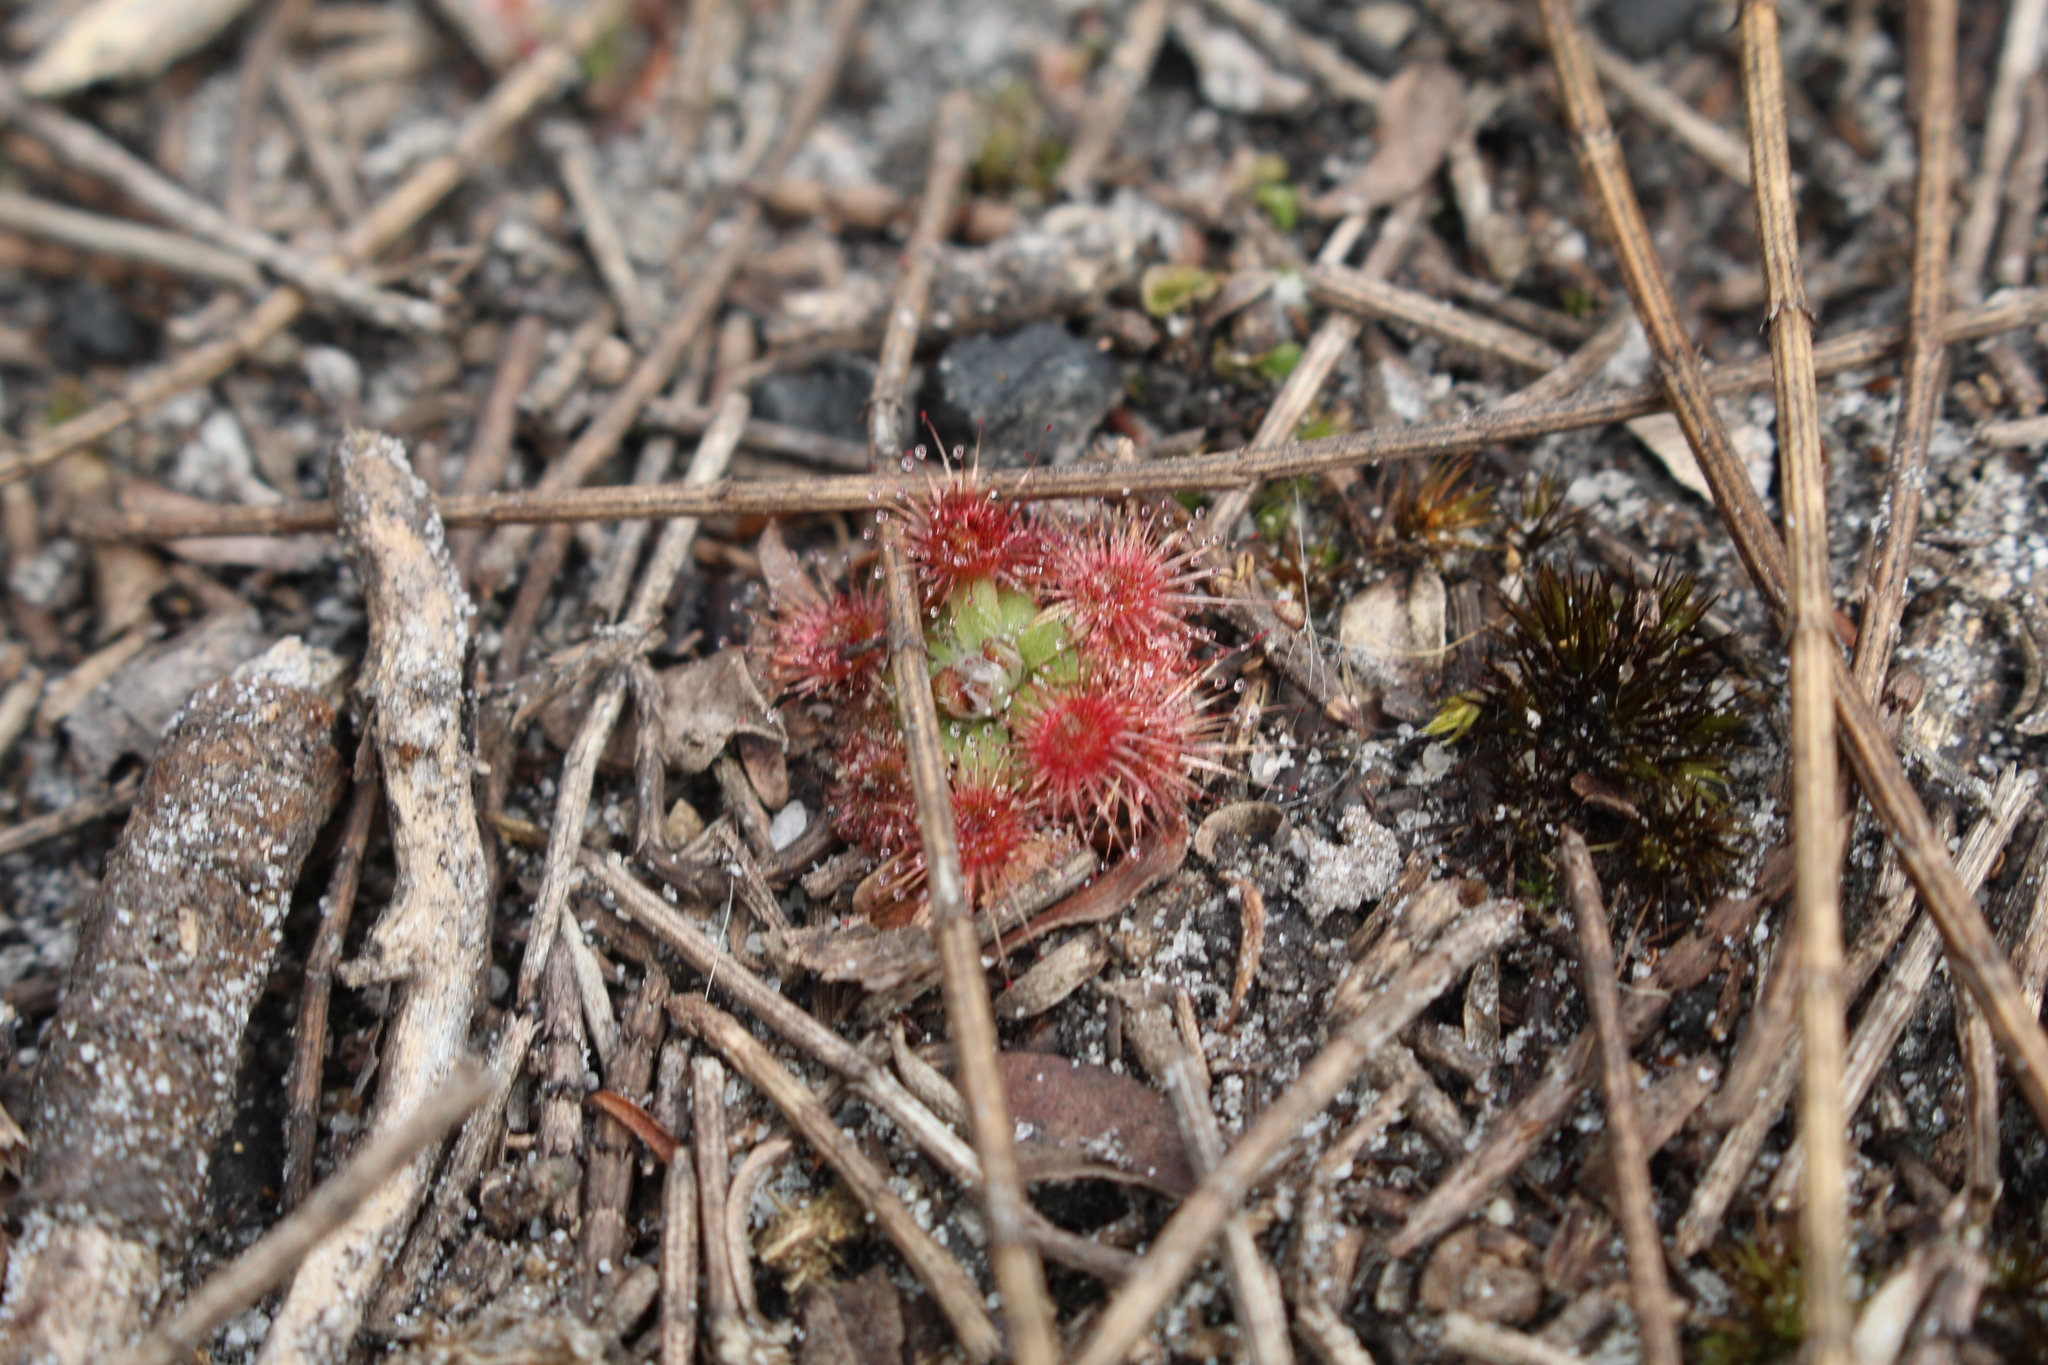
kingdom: Plantae
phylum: Tracheophyta
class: Magnoliopsida
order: Caryophyllales
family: Droseraceae
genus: Drosera
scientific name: Drosera pulchella
